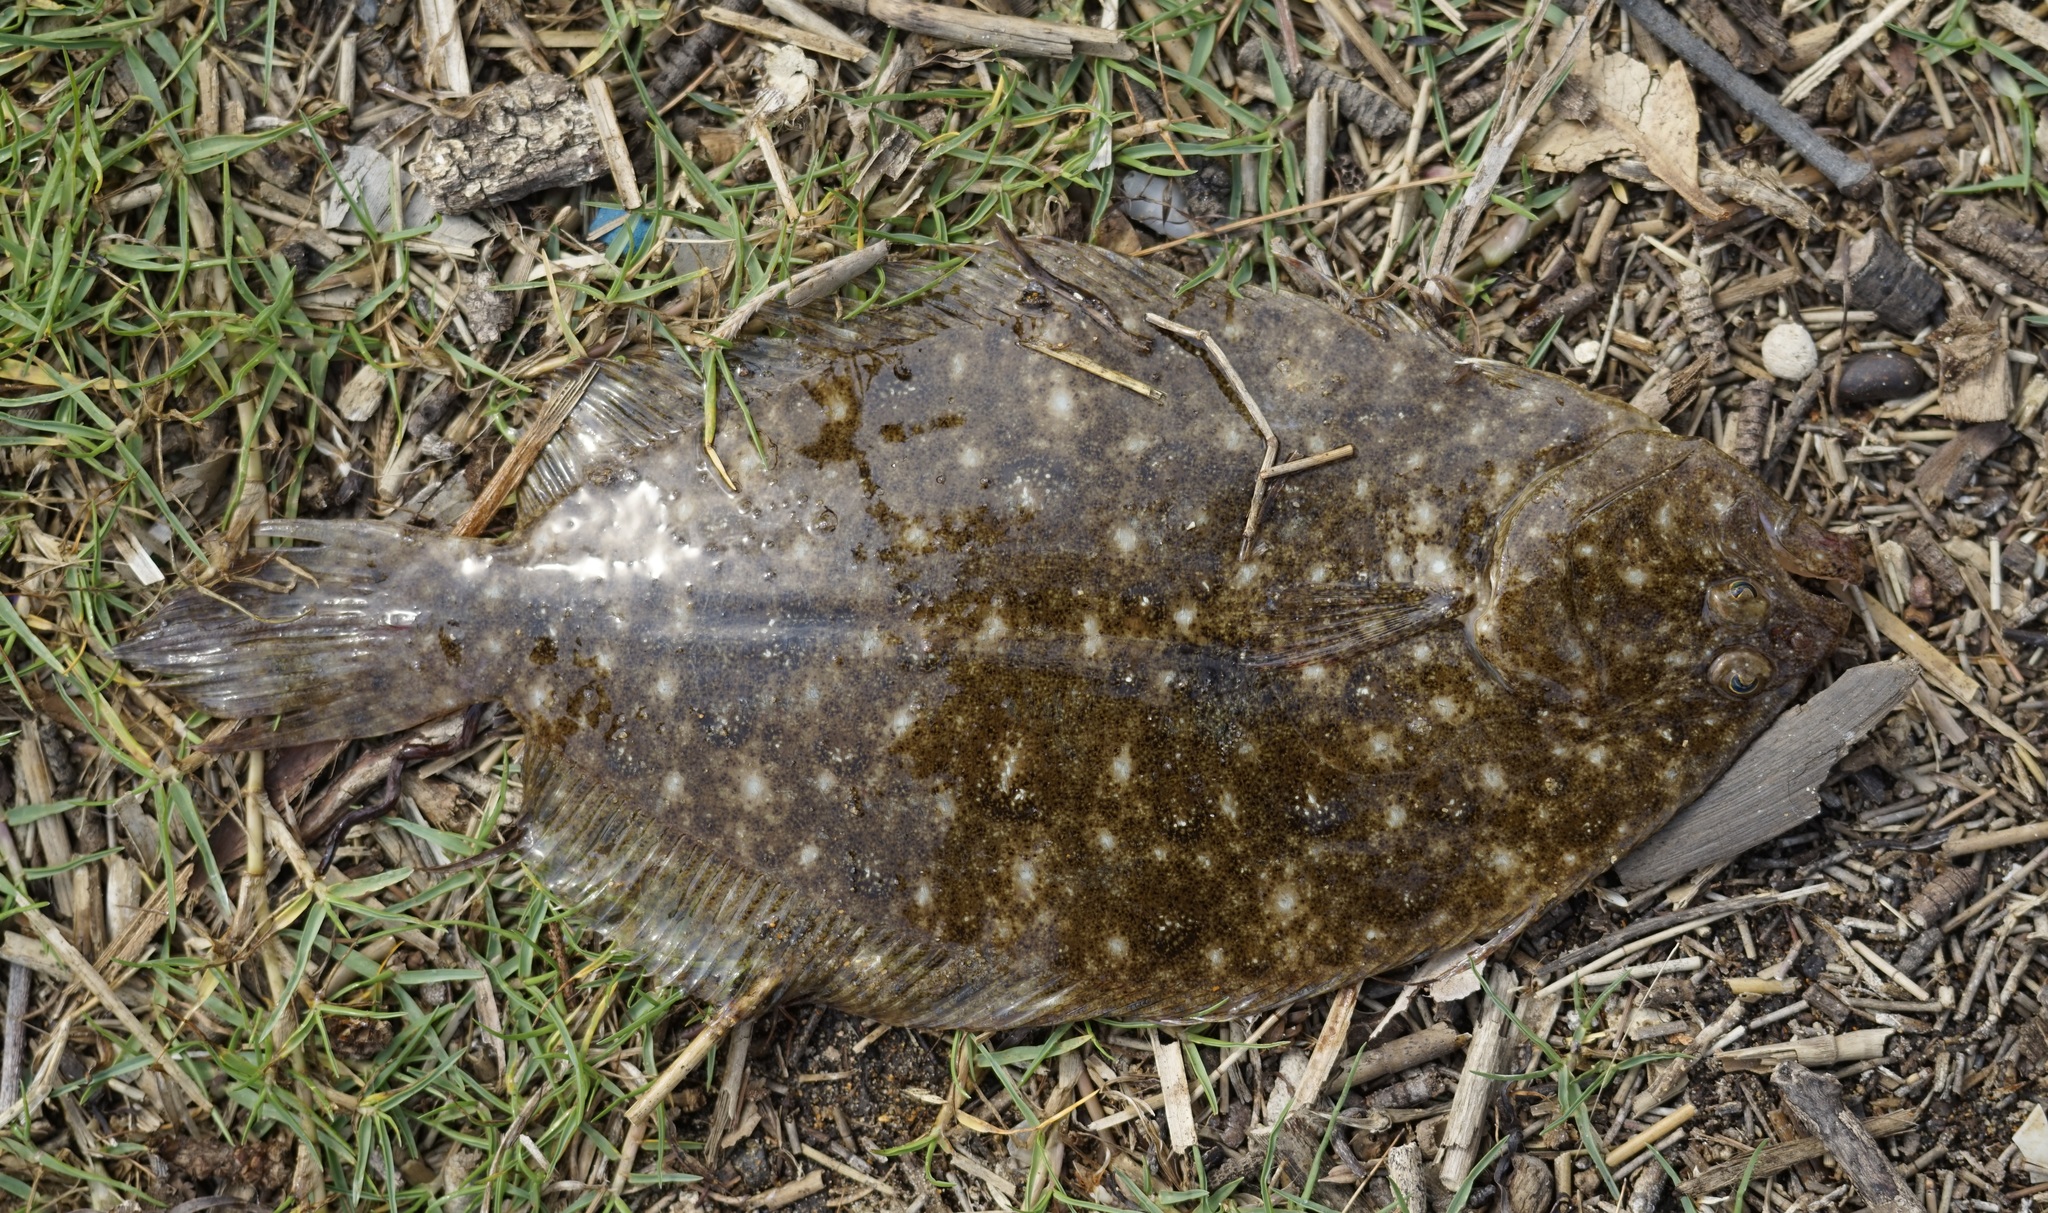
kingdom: Animalia
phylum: Chordata
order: Pleuronectiformes
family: Paralichthyidae
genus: Pseudorhombus
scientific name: Pseudorhombus arsius
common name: Largetooth flounder
